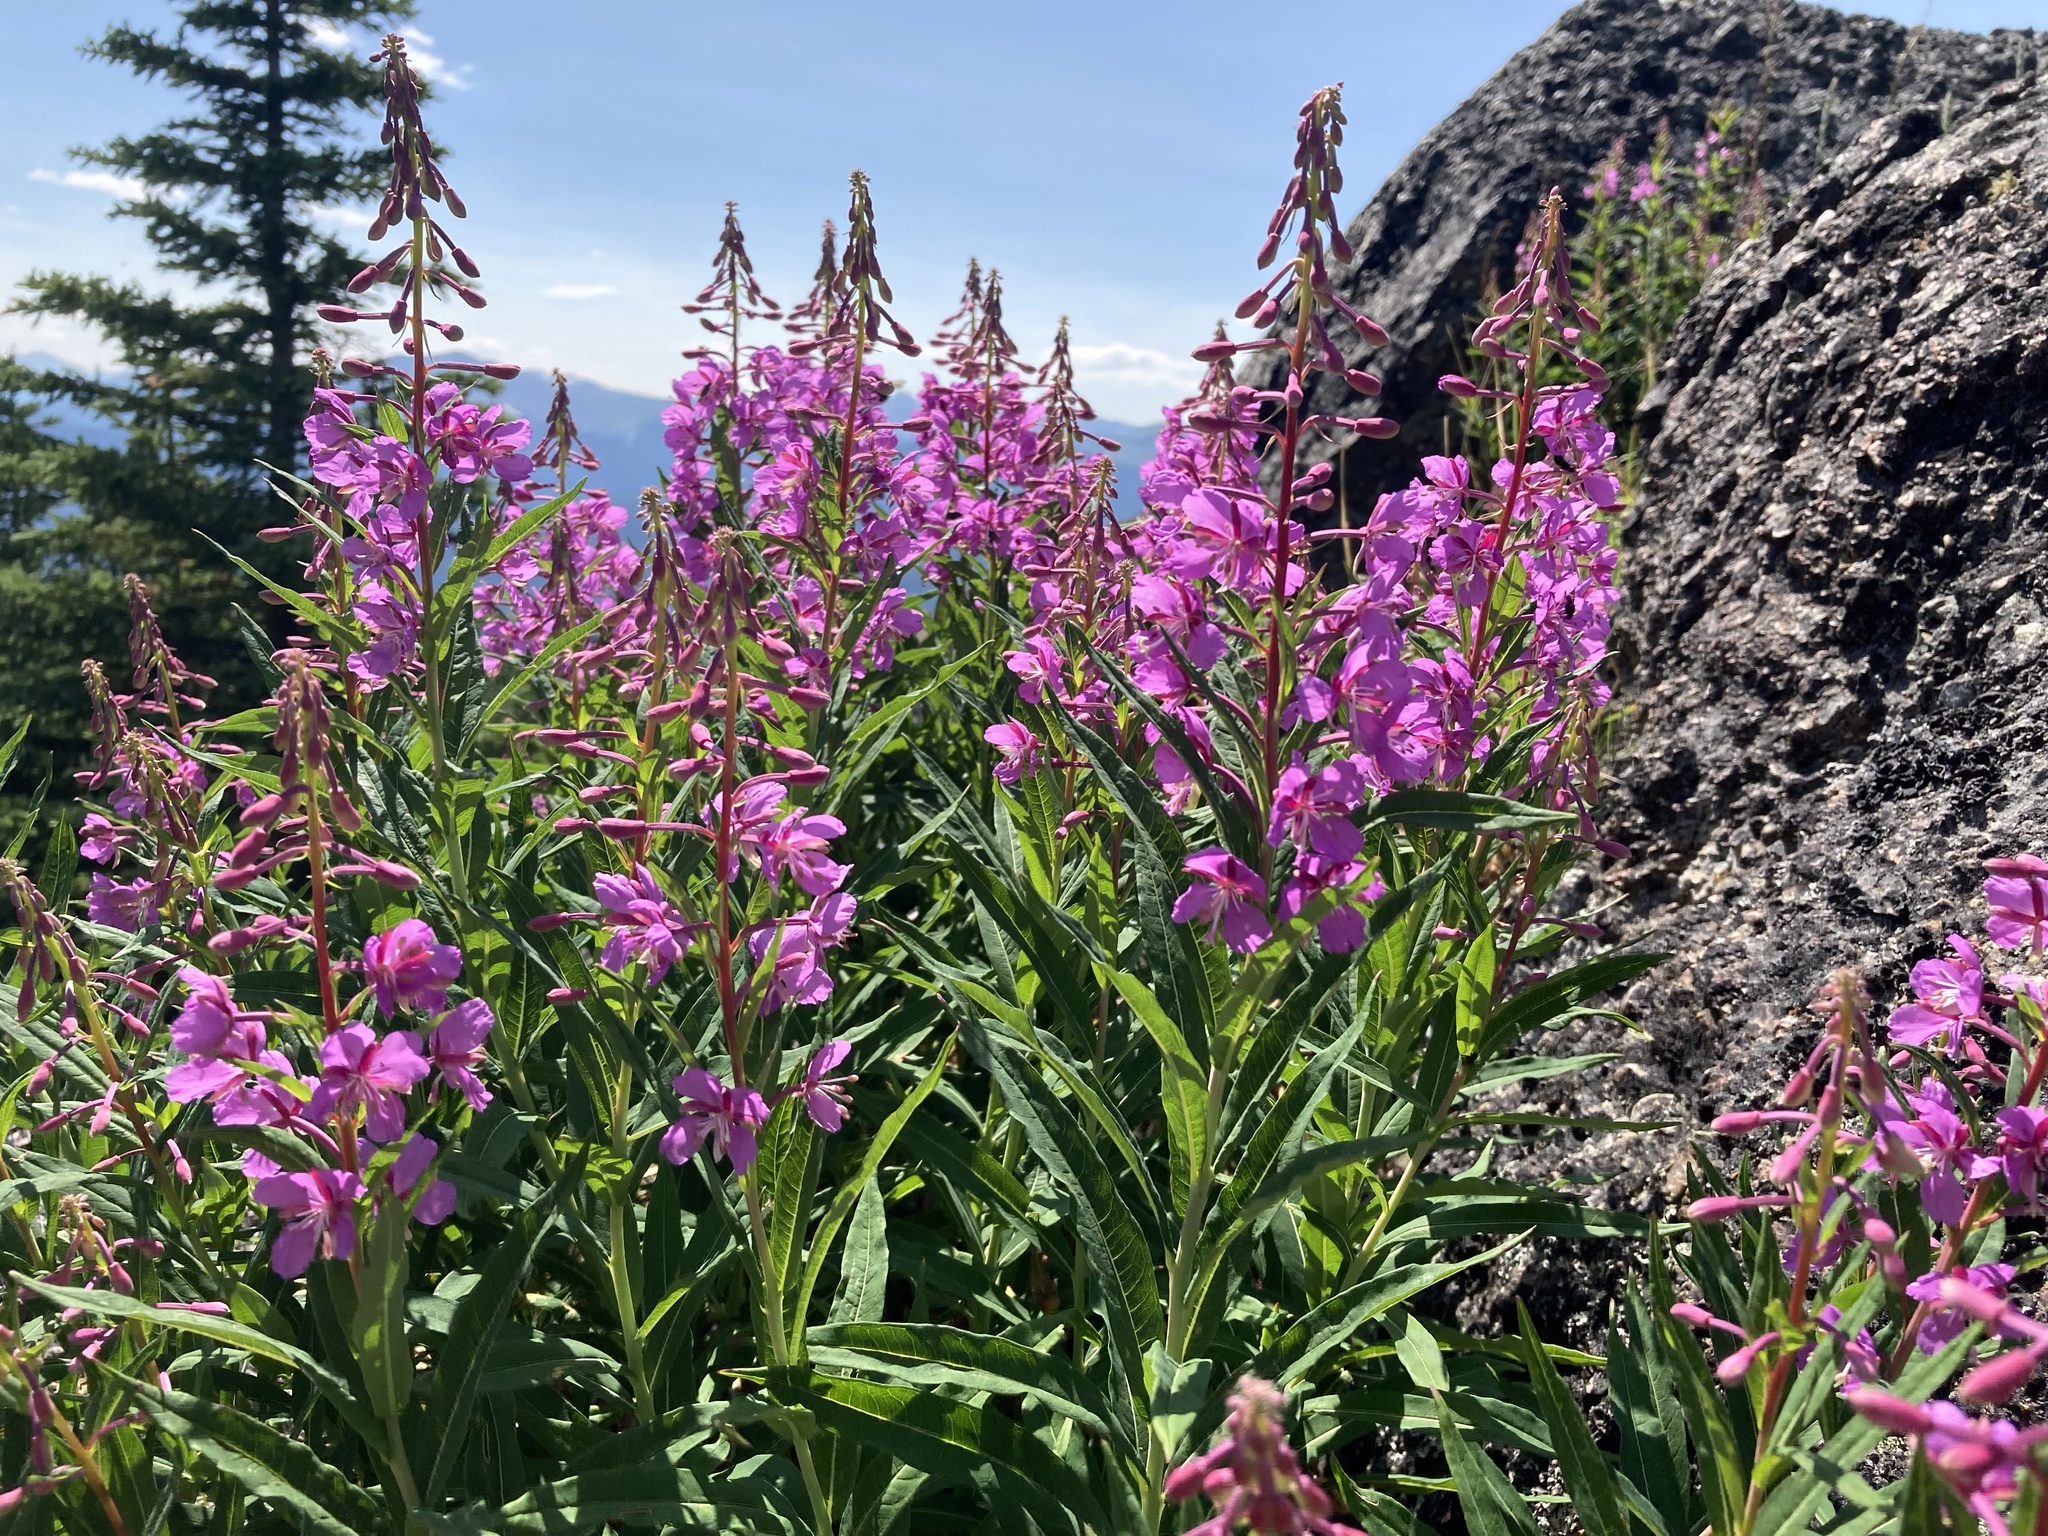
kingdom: Plantae
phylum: Tracheophyta
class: Magnoliopsida
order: Myrtales
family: Onagraceae
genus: Chamaenerion
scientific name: Chamaenerion angustifolium
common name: Fireweed
